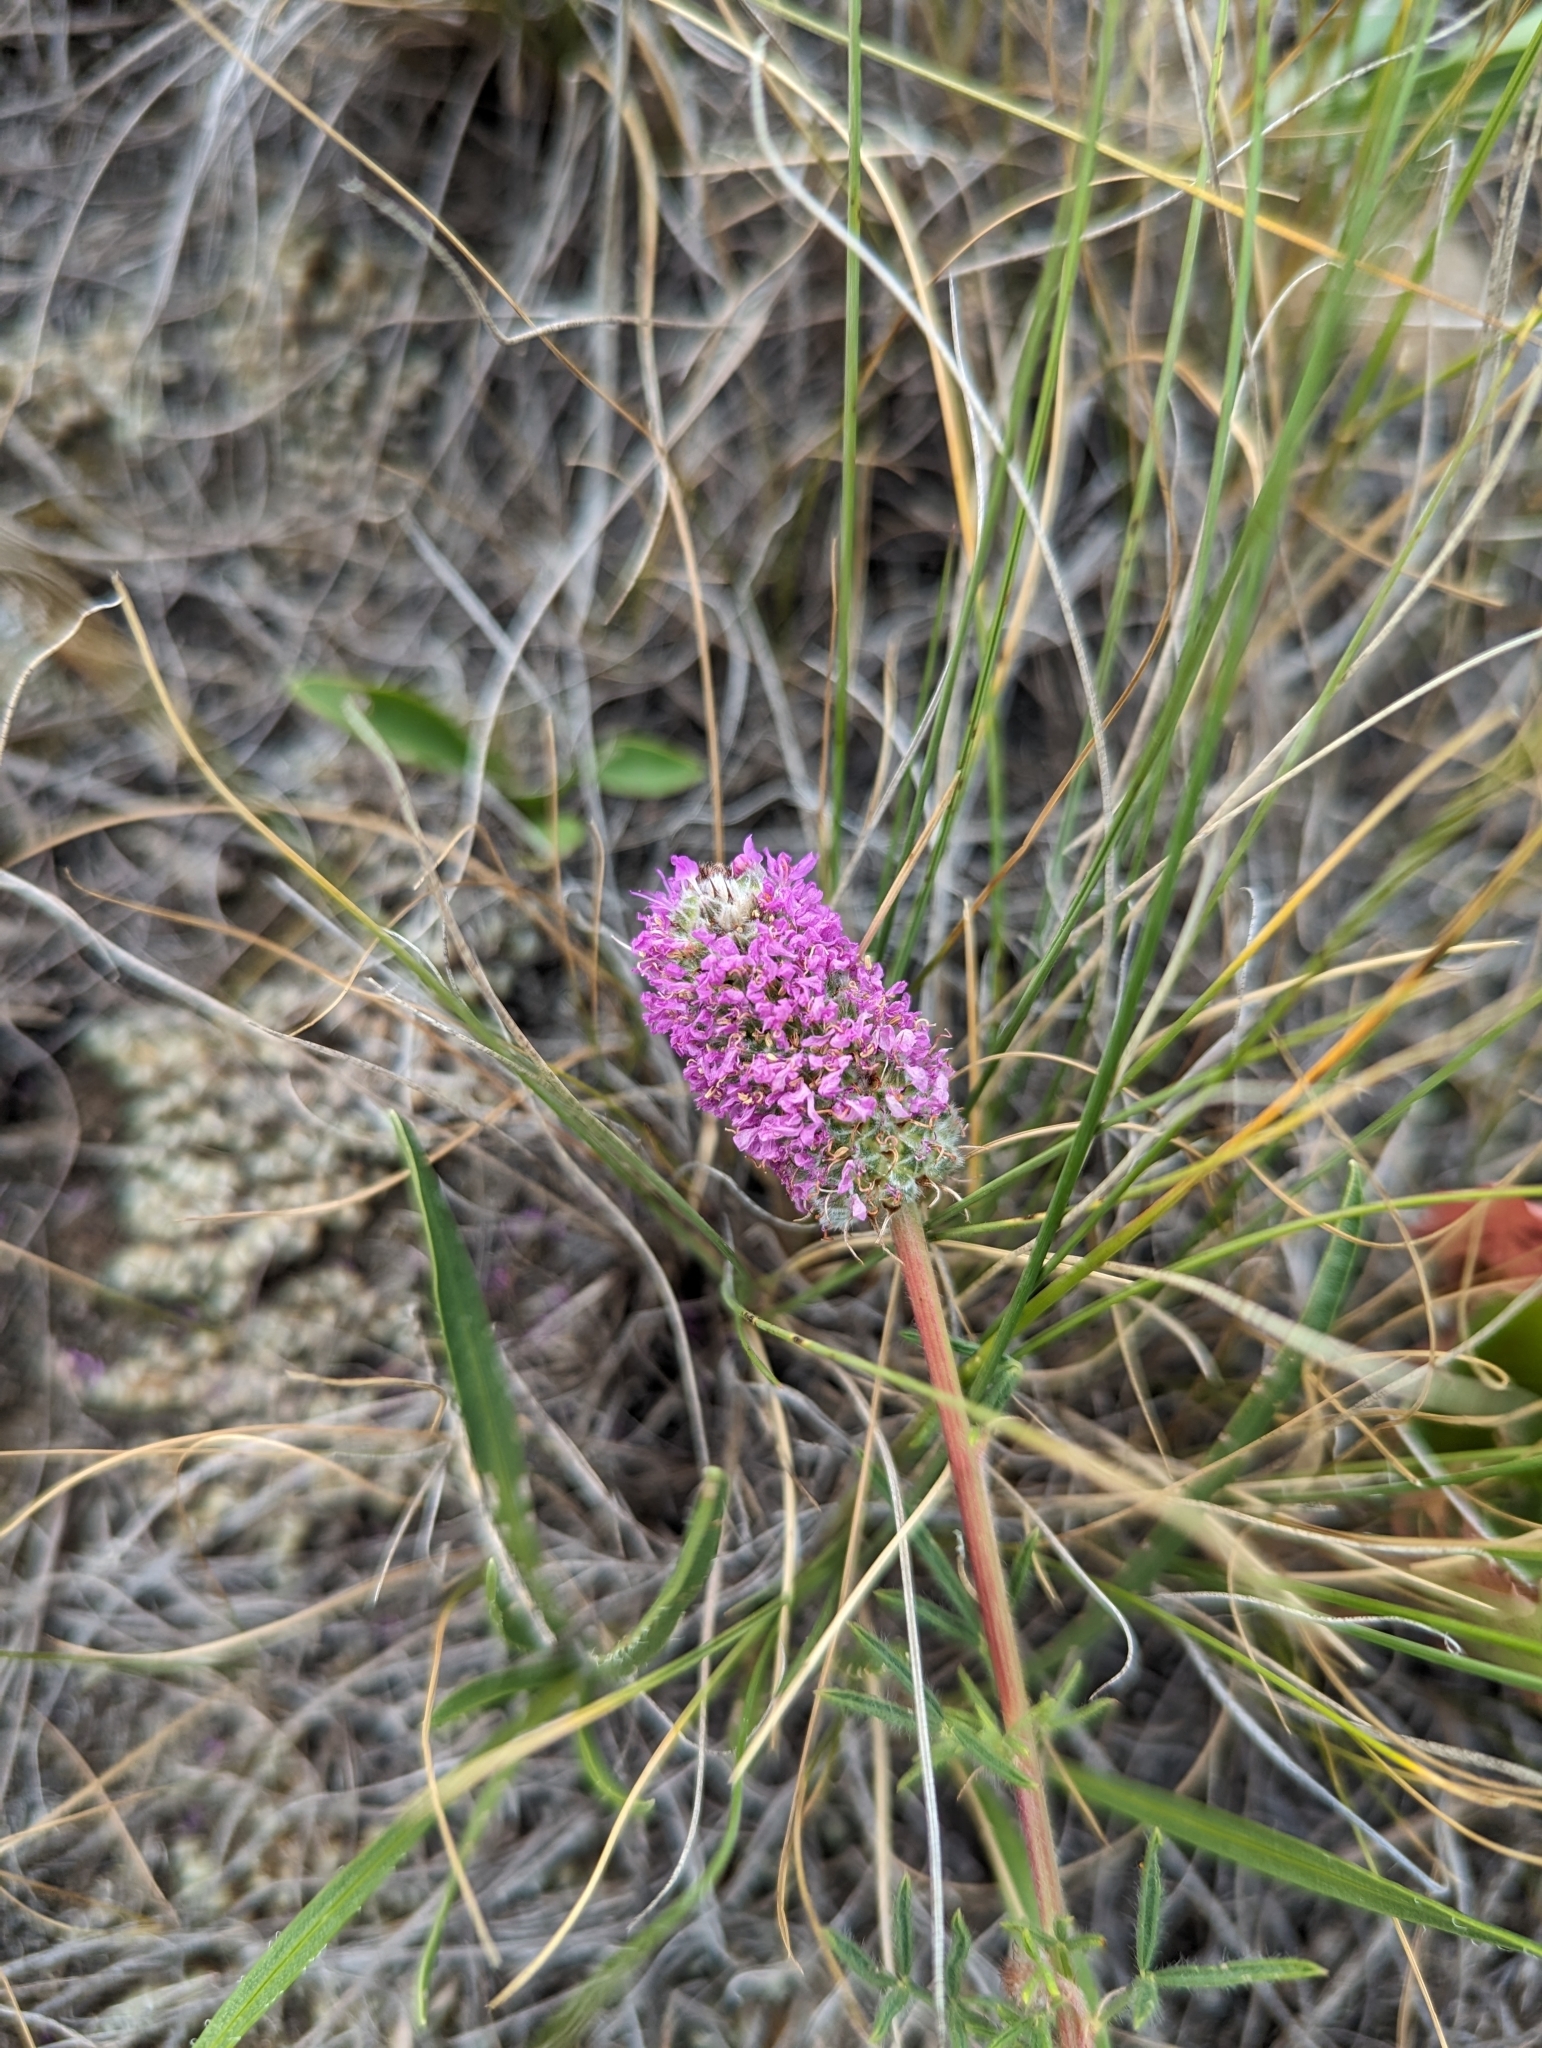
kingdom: Plantae
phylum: Tracheophyta
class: Magnoliopsida
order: Fabales
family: Fabaceae
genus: Dalea
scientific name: Dalea purpurea
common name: Purple prairie-clover
